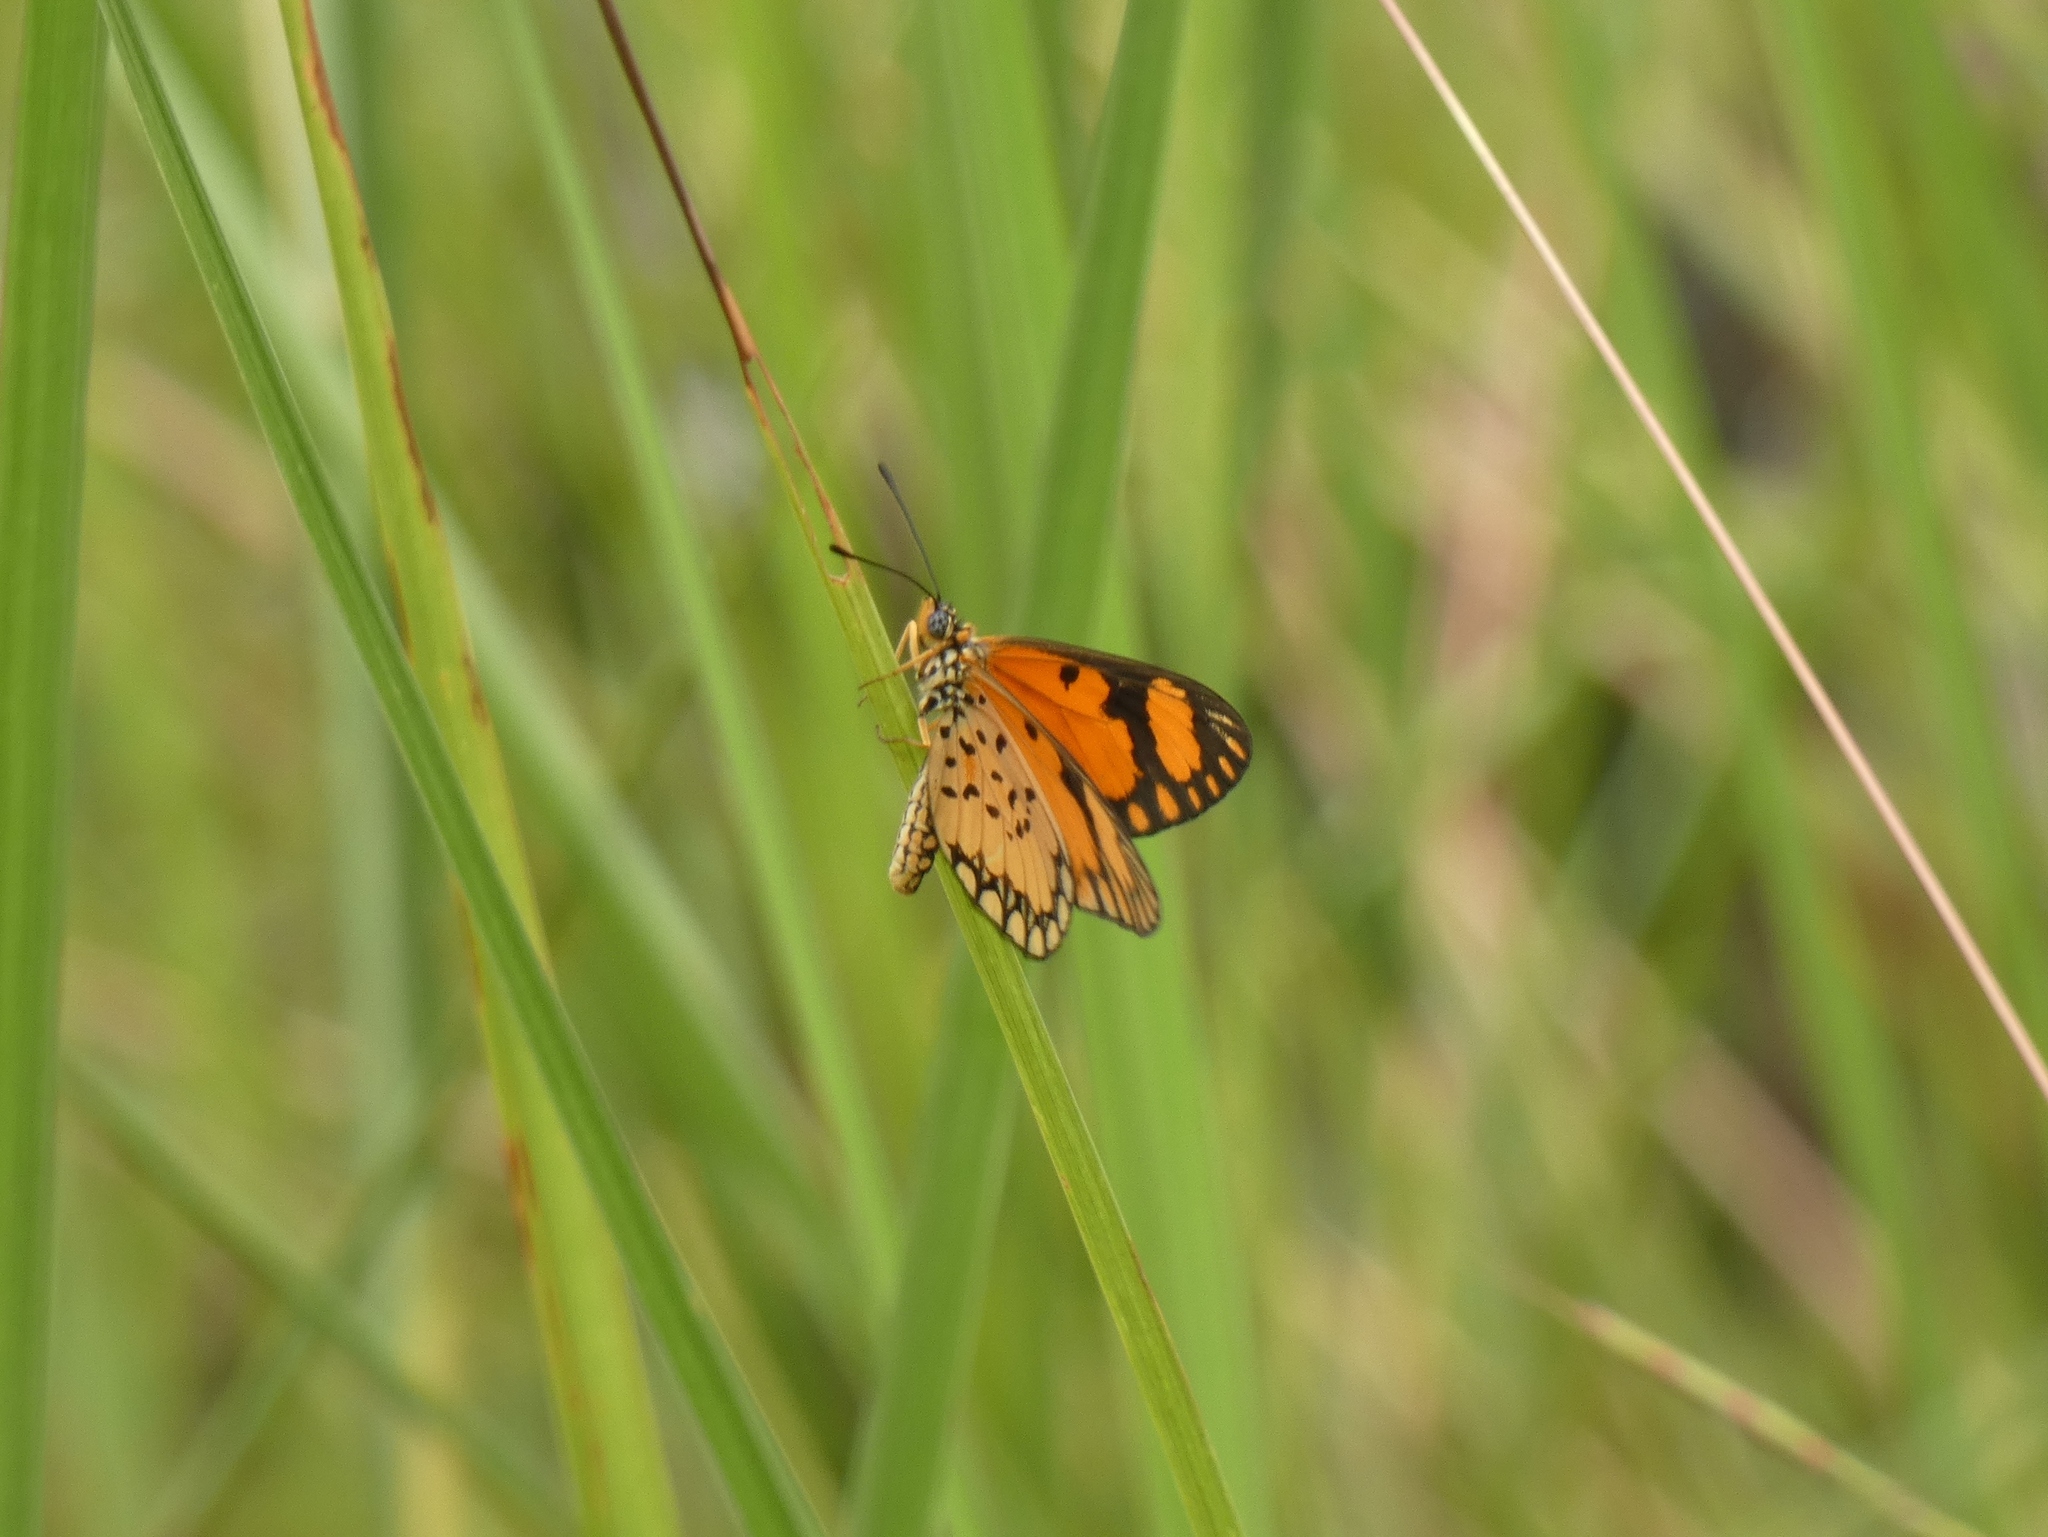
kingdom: Animalia
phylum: Arthropoda
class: Insecta
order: Lepidoptera
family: Nymphalidae
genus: Acraea
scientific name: Acraea Telchinia serena
